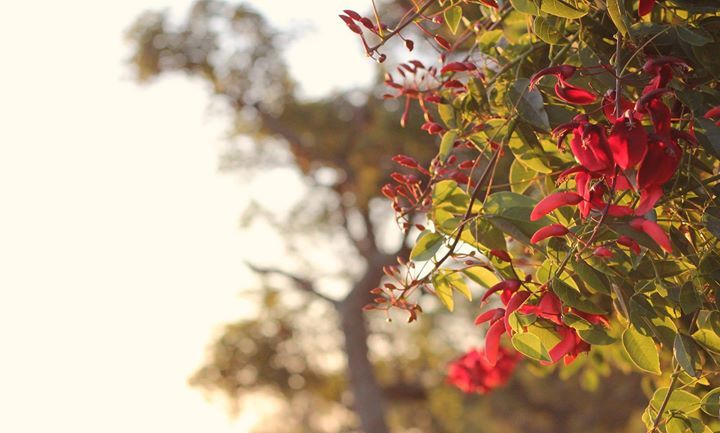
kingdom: Plantae
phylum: Tracheophyta
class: Magnoliopsida
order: Fabales
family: Fabaceae
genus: Erythrina
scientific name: Erythrina crista-galli
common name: Cockspur coral tree
